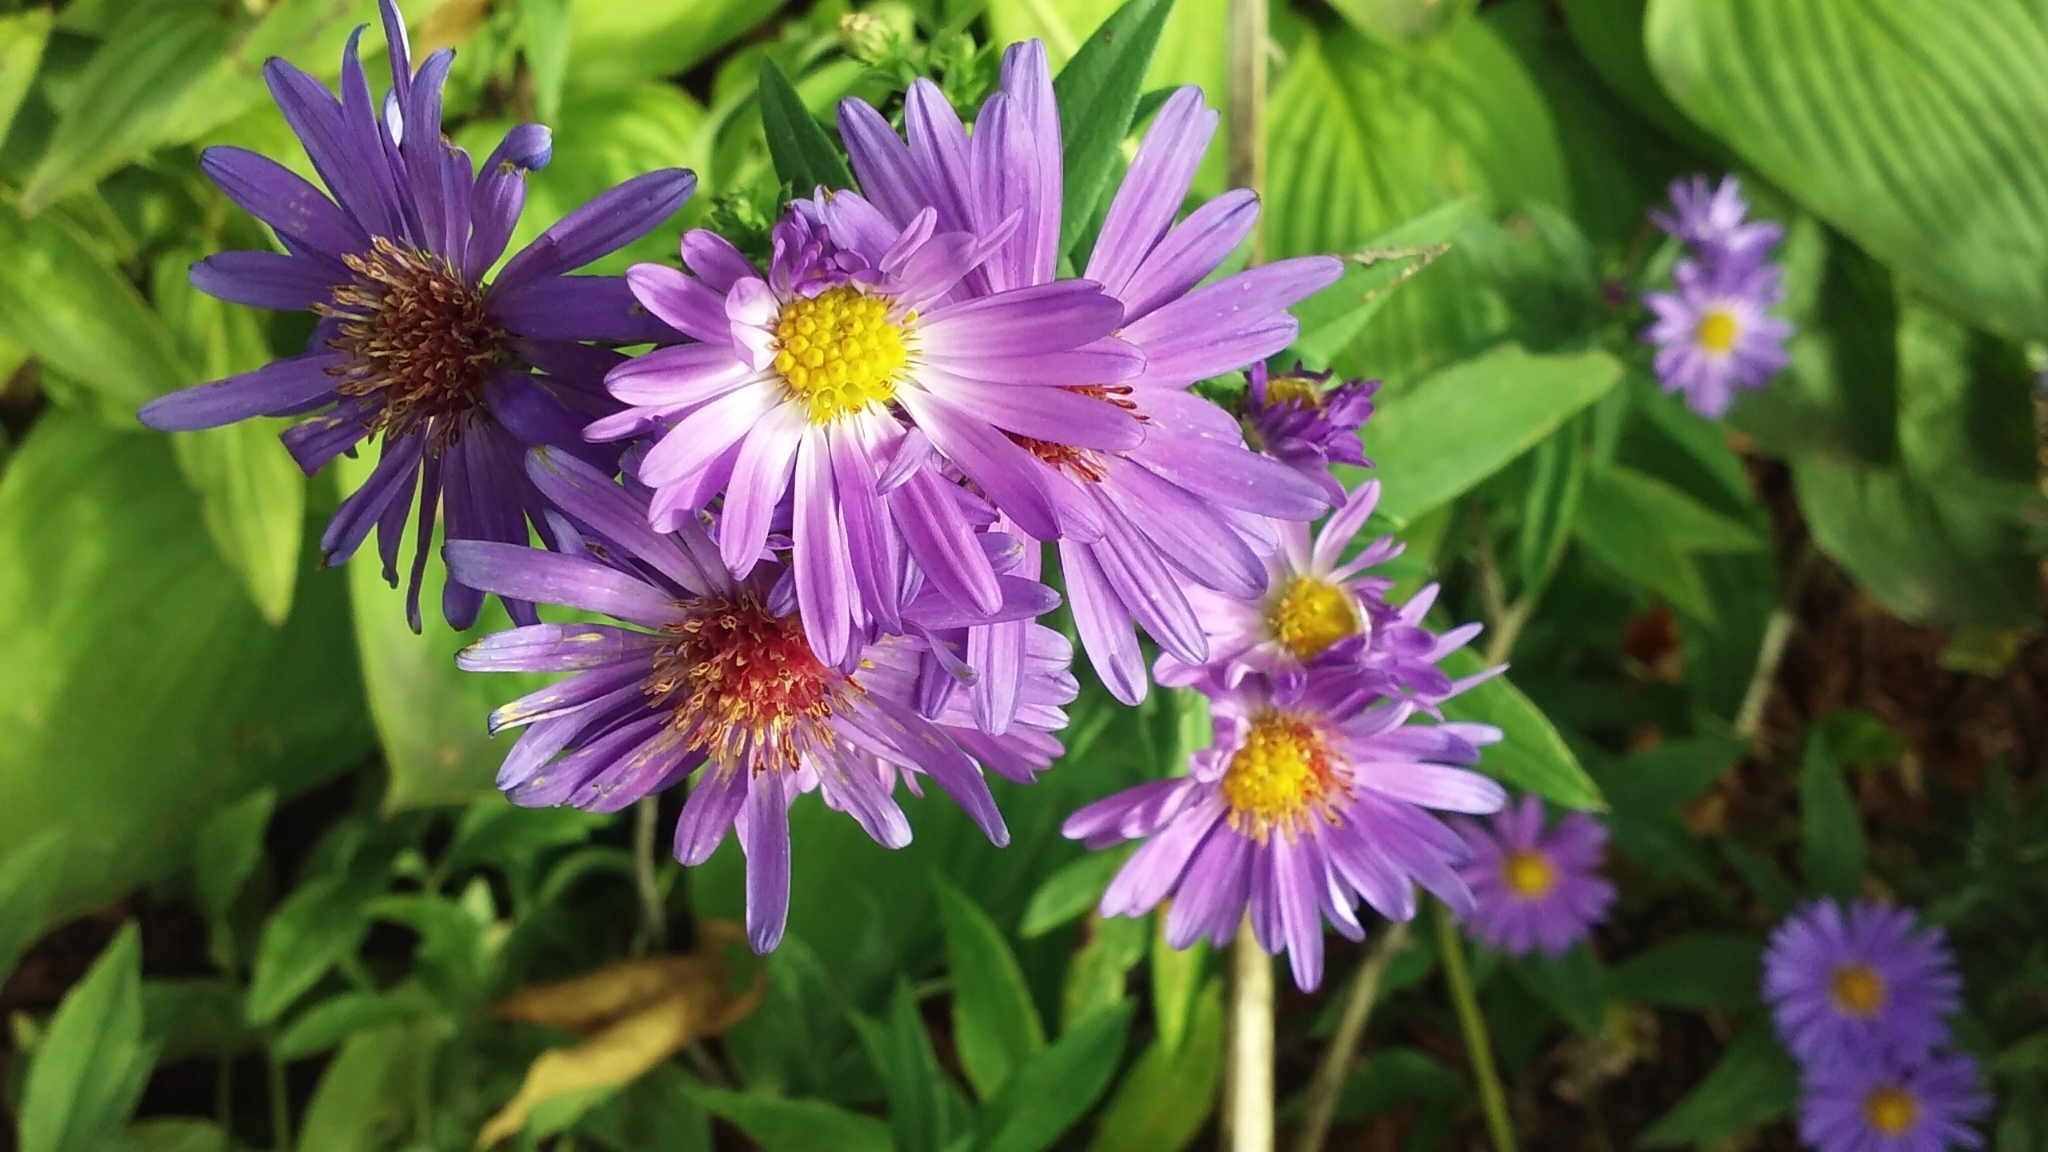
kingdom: Plantae
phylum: Tracheophyta
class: Magnoliopsida
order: Asterales
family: Asteraceae
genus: Symphyotrichum
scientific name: Symphyotrichum novae-angliae
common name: Michaelmas daisy
